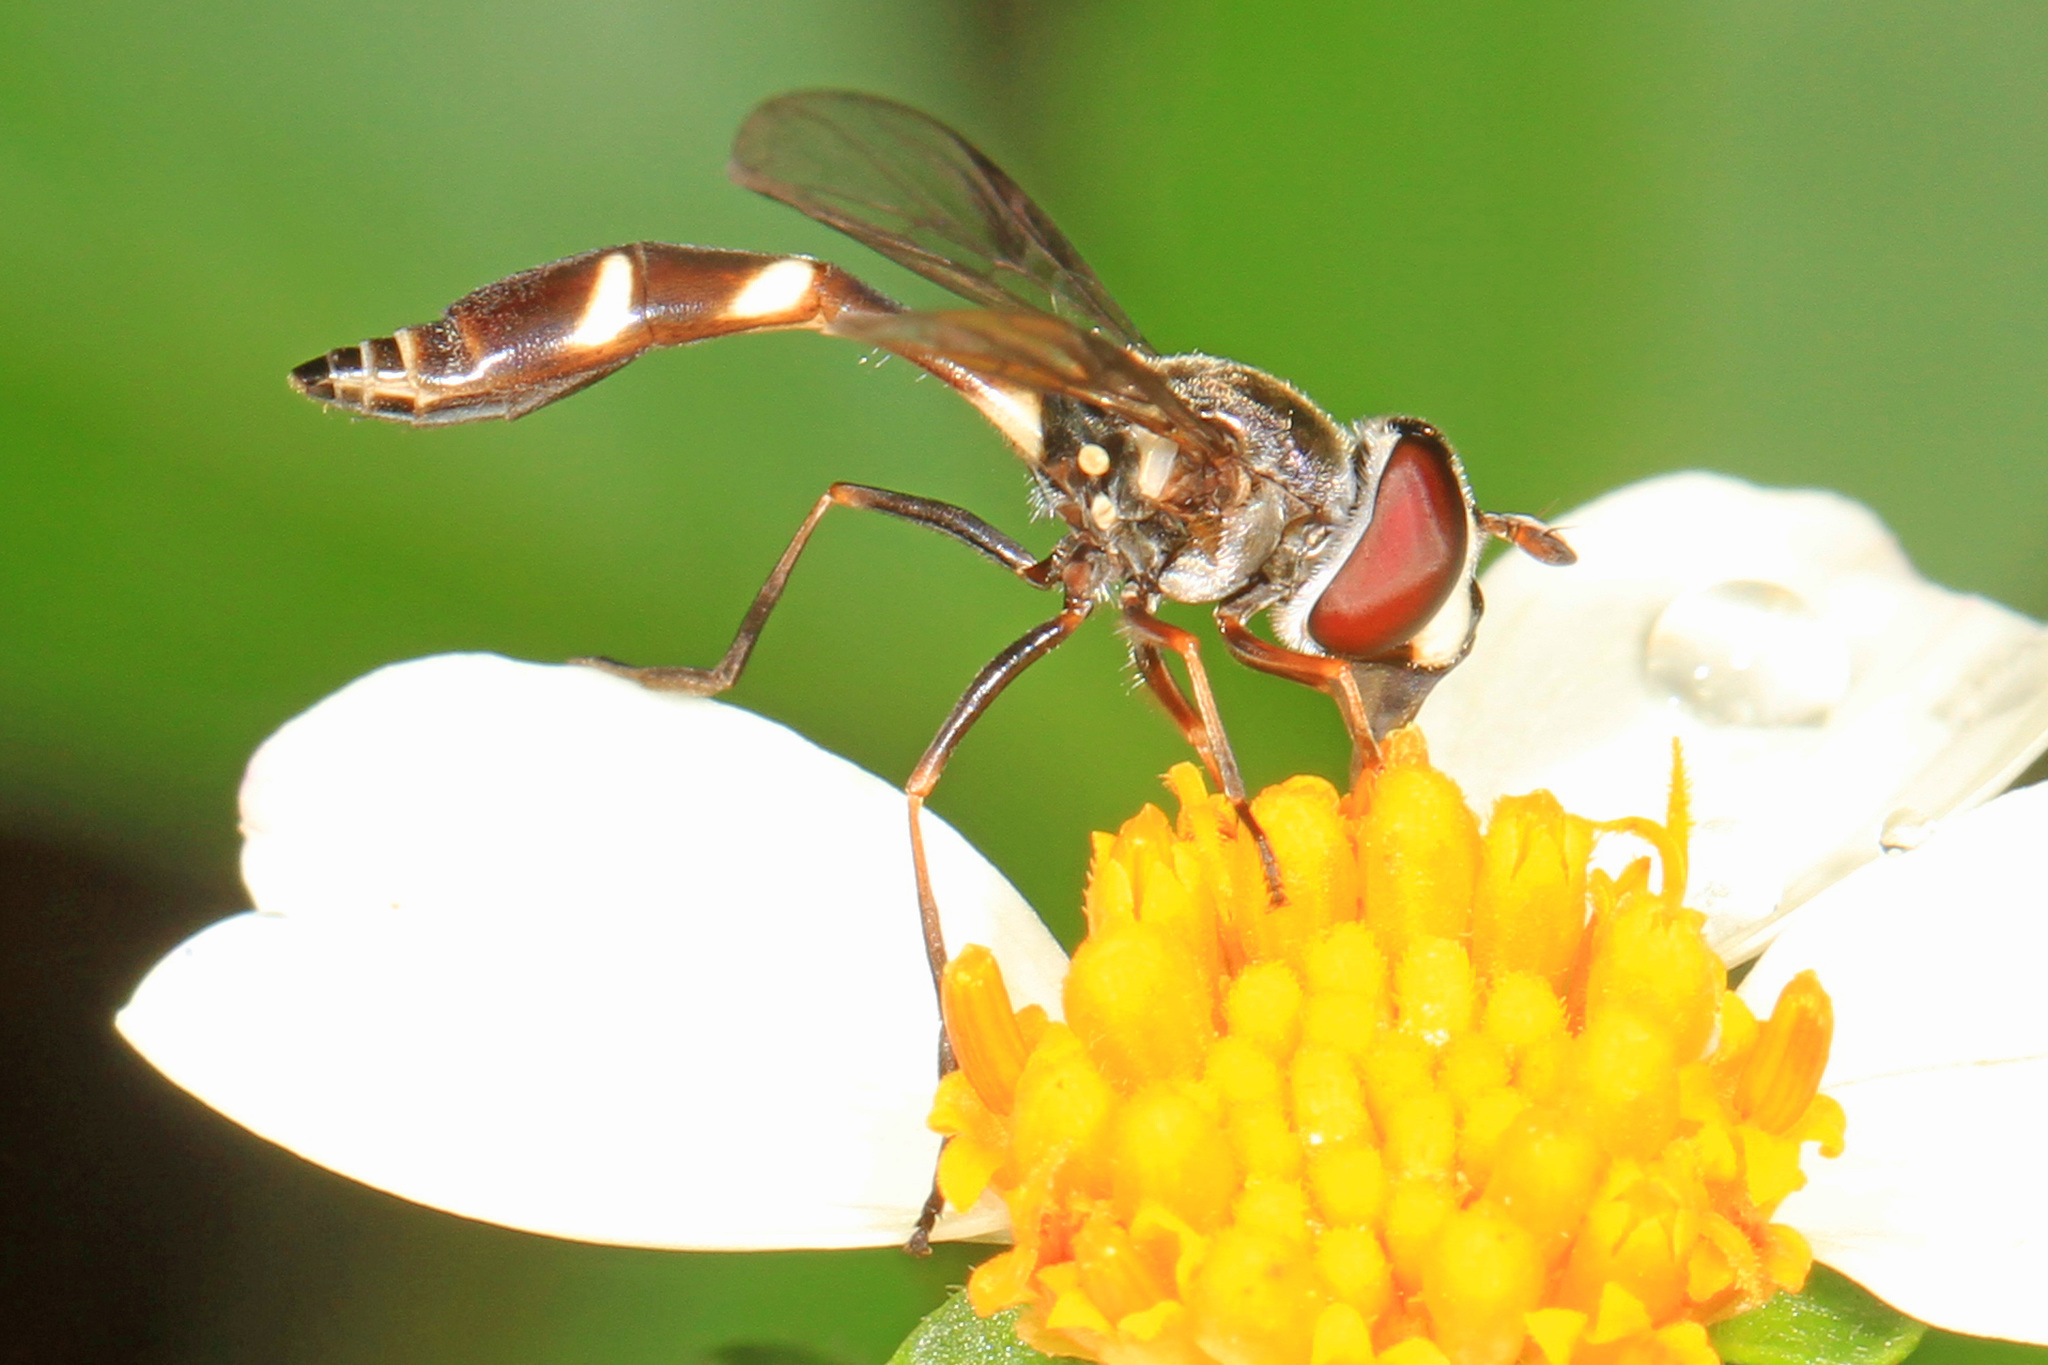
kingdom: Animalia
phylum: Arthropoda
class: Insecta
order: Diptera
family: Syrphidae
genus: Dioprosopa
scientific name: Dioprosopa clavatus
